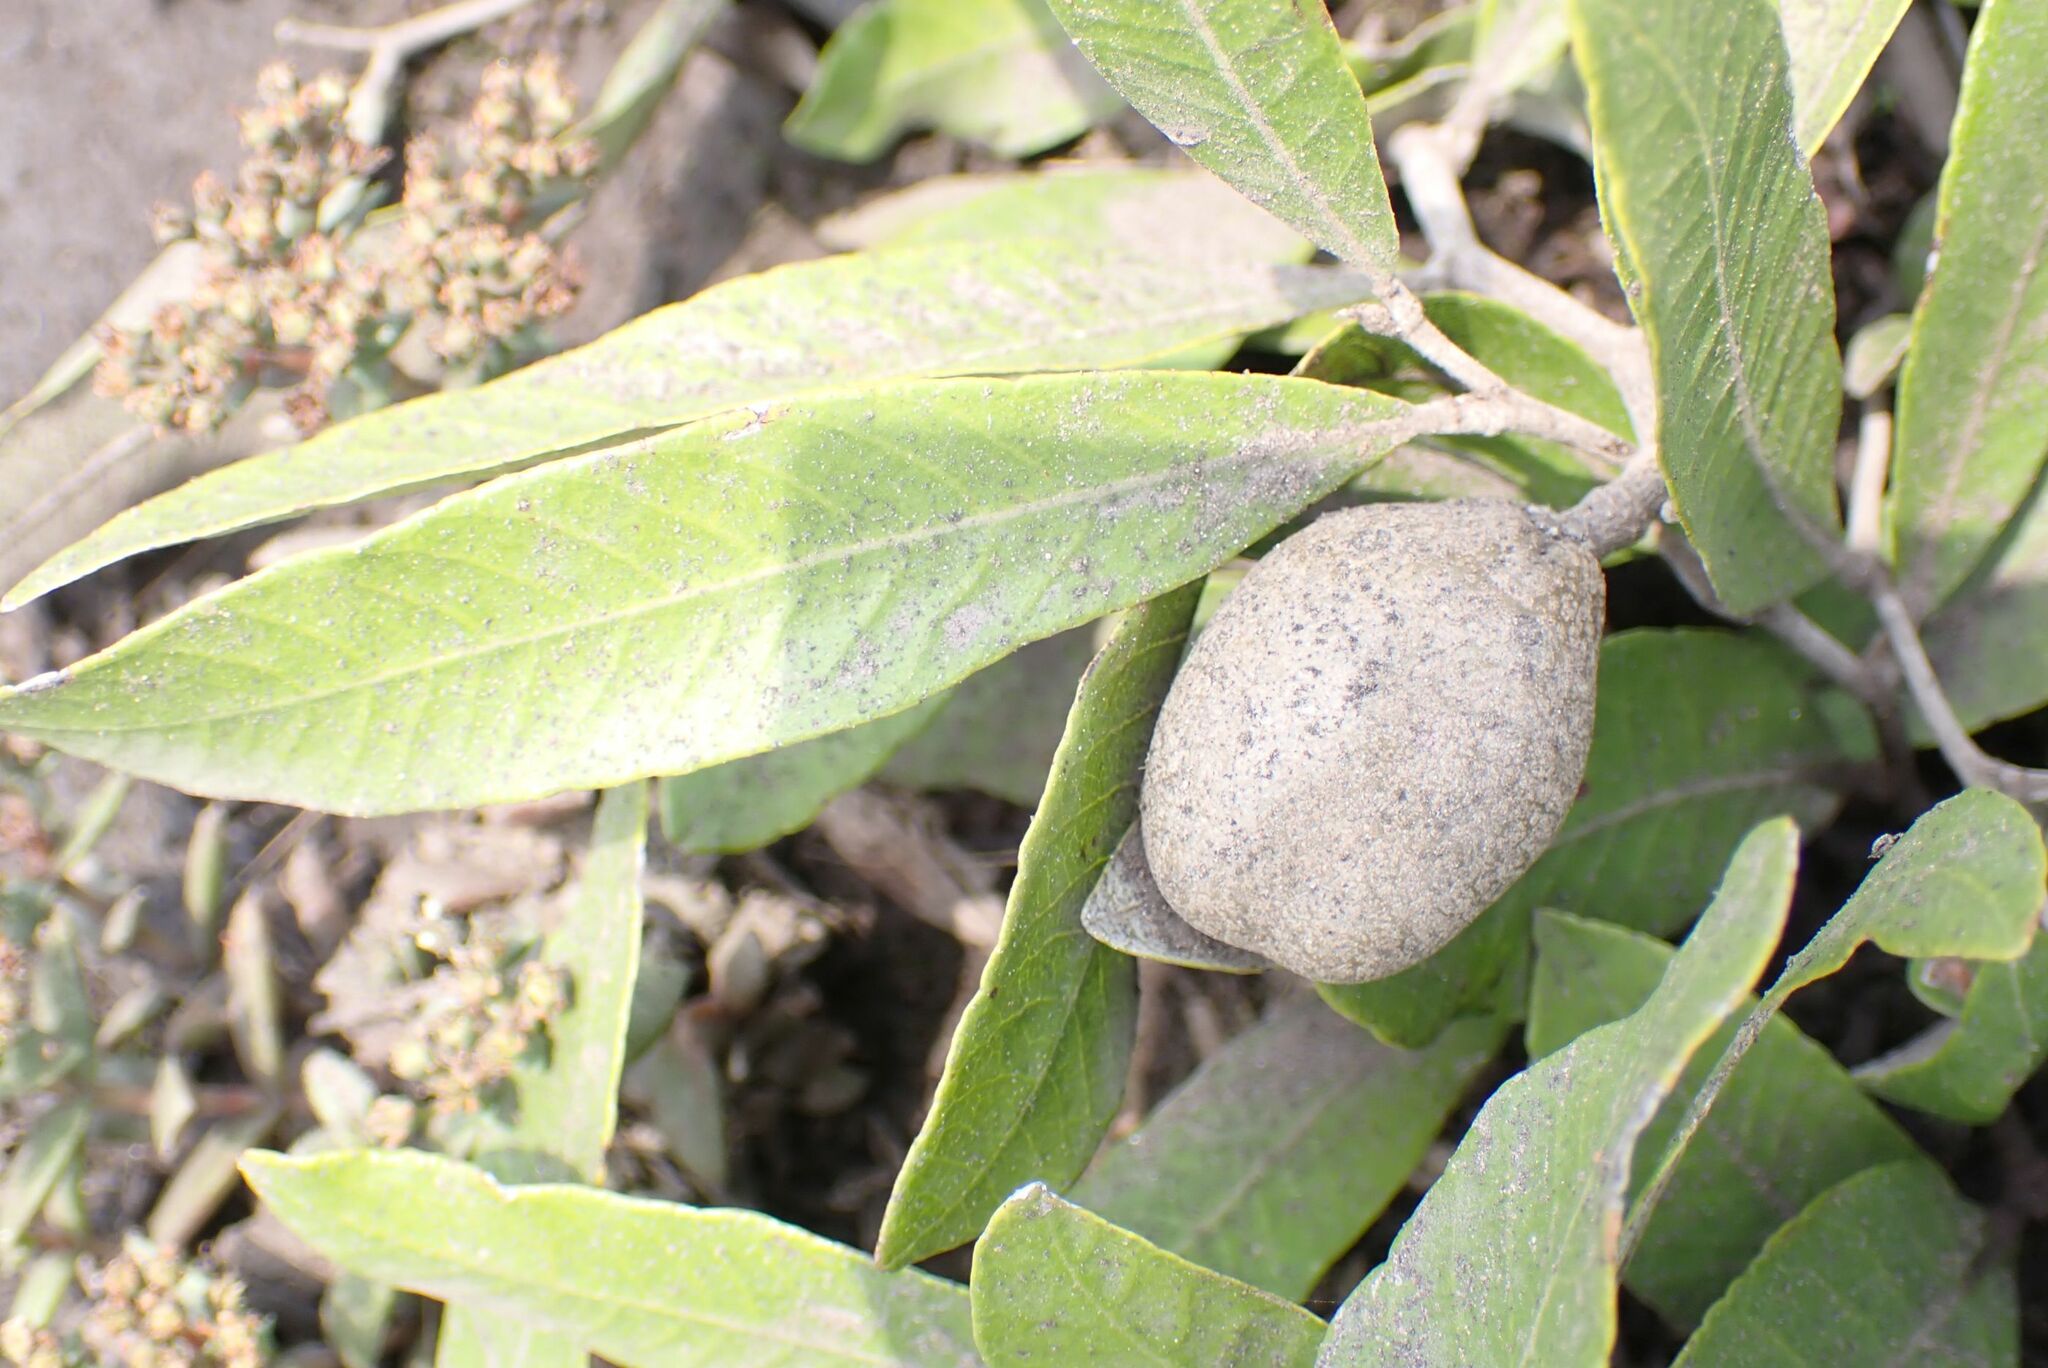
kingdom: Plantae
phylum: Tracheophyta
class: Magnoliopsida
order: Malpighiales
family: Chrysobalanaceae
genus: Parinari
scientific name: Parinari capensis
